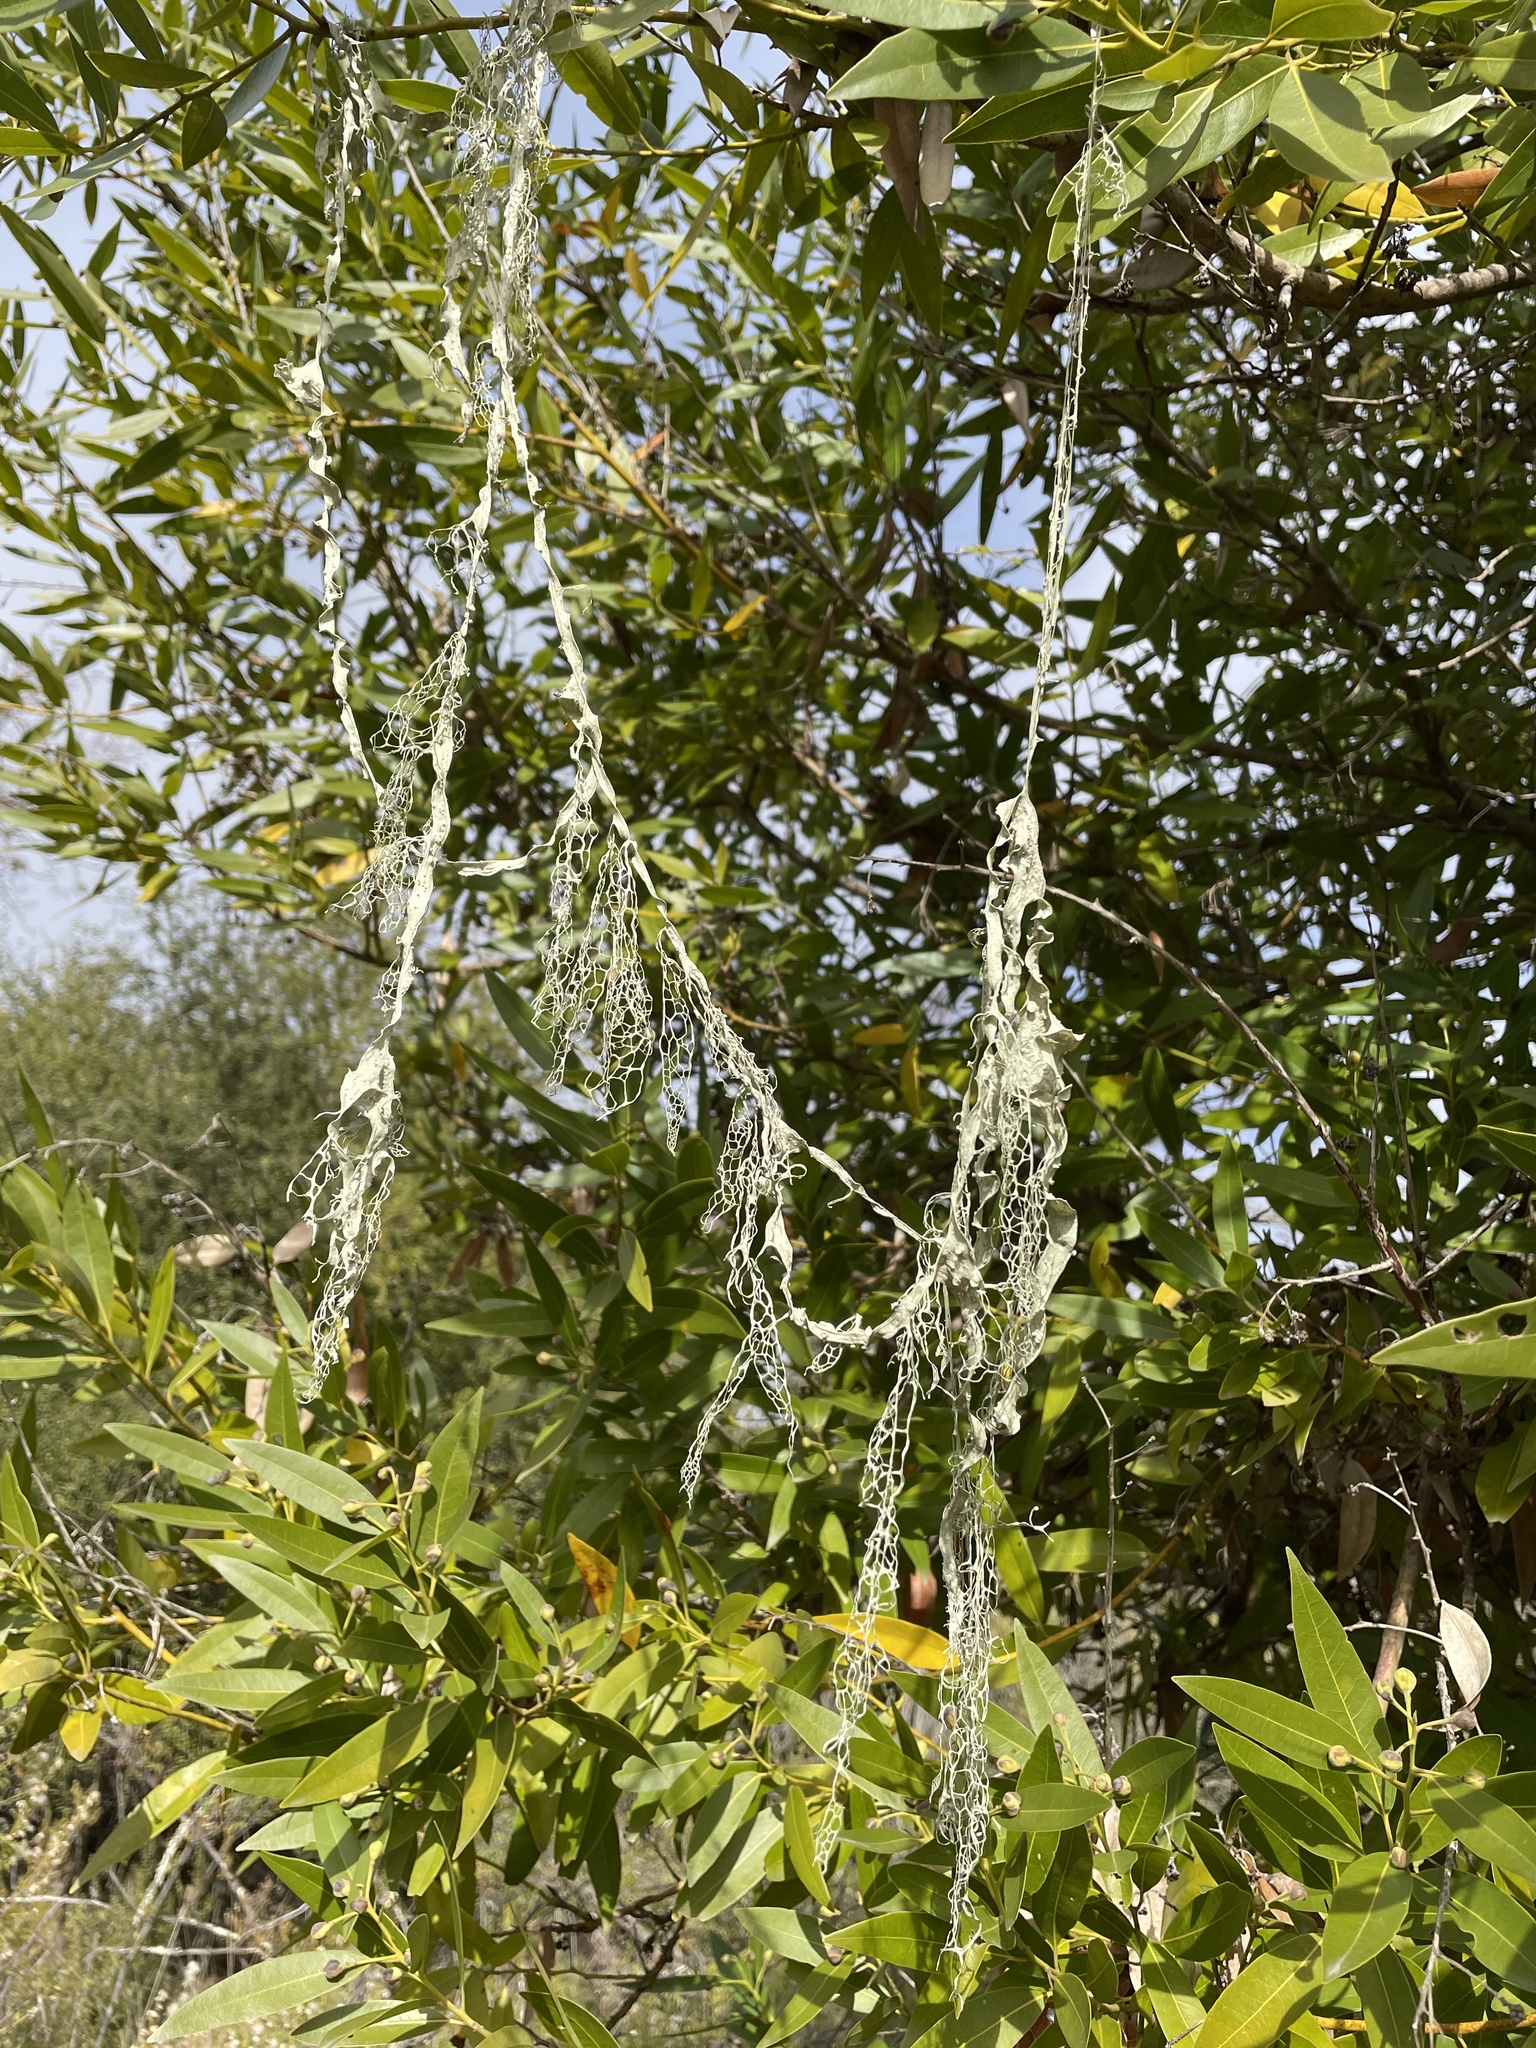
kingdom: Fungi
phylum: Ascomycota
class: Lecanoromycetes
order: Lecanorales
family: Ramalinaceae
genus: Ramalina
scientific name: Ramalina menziesii
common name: Lace lichen
